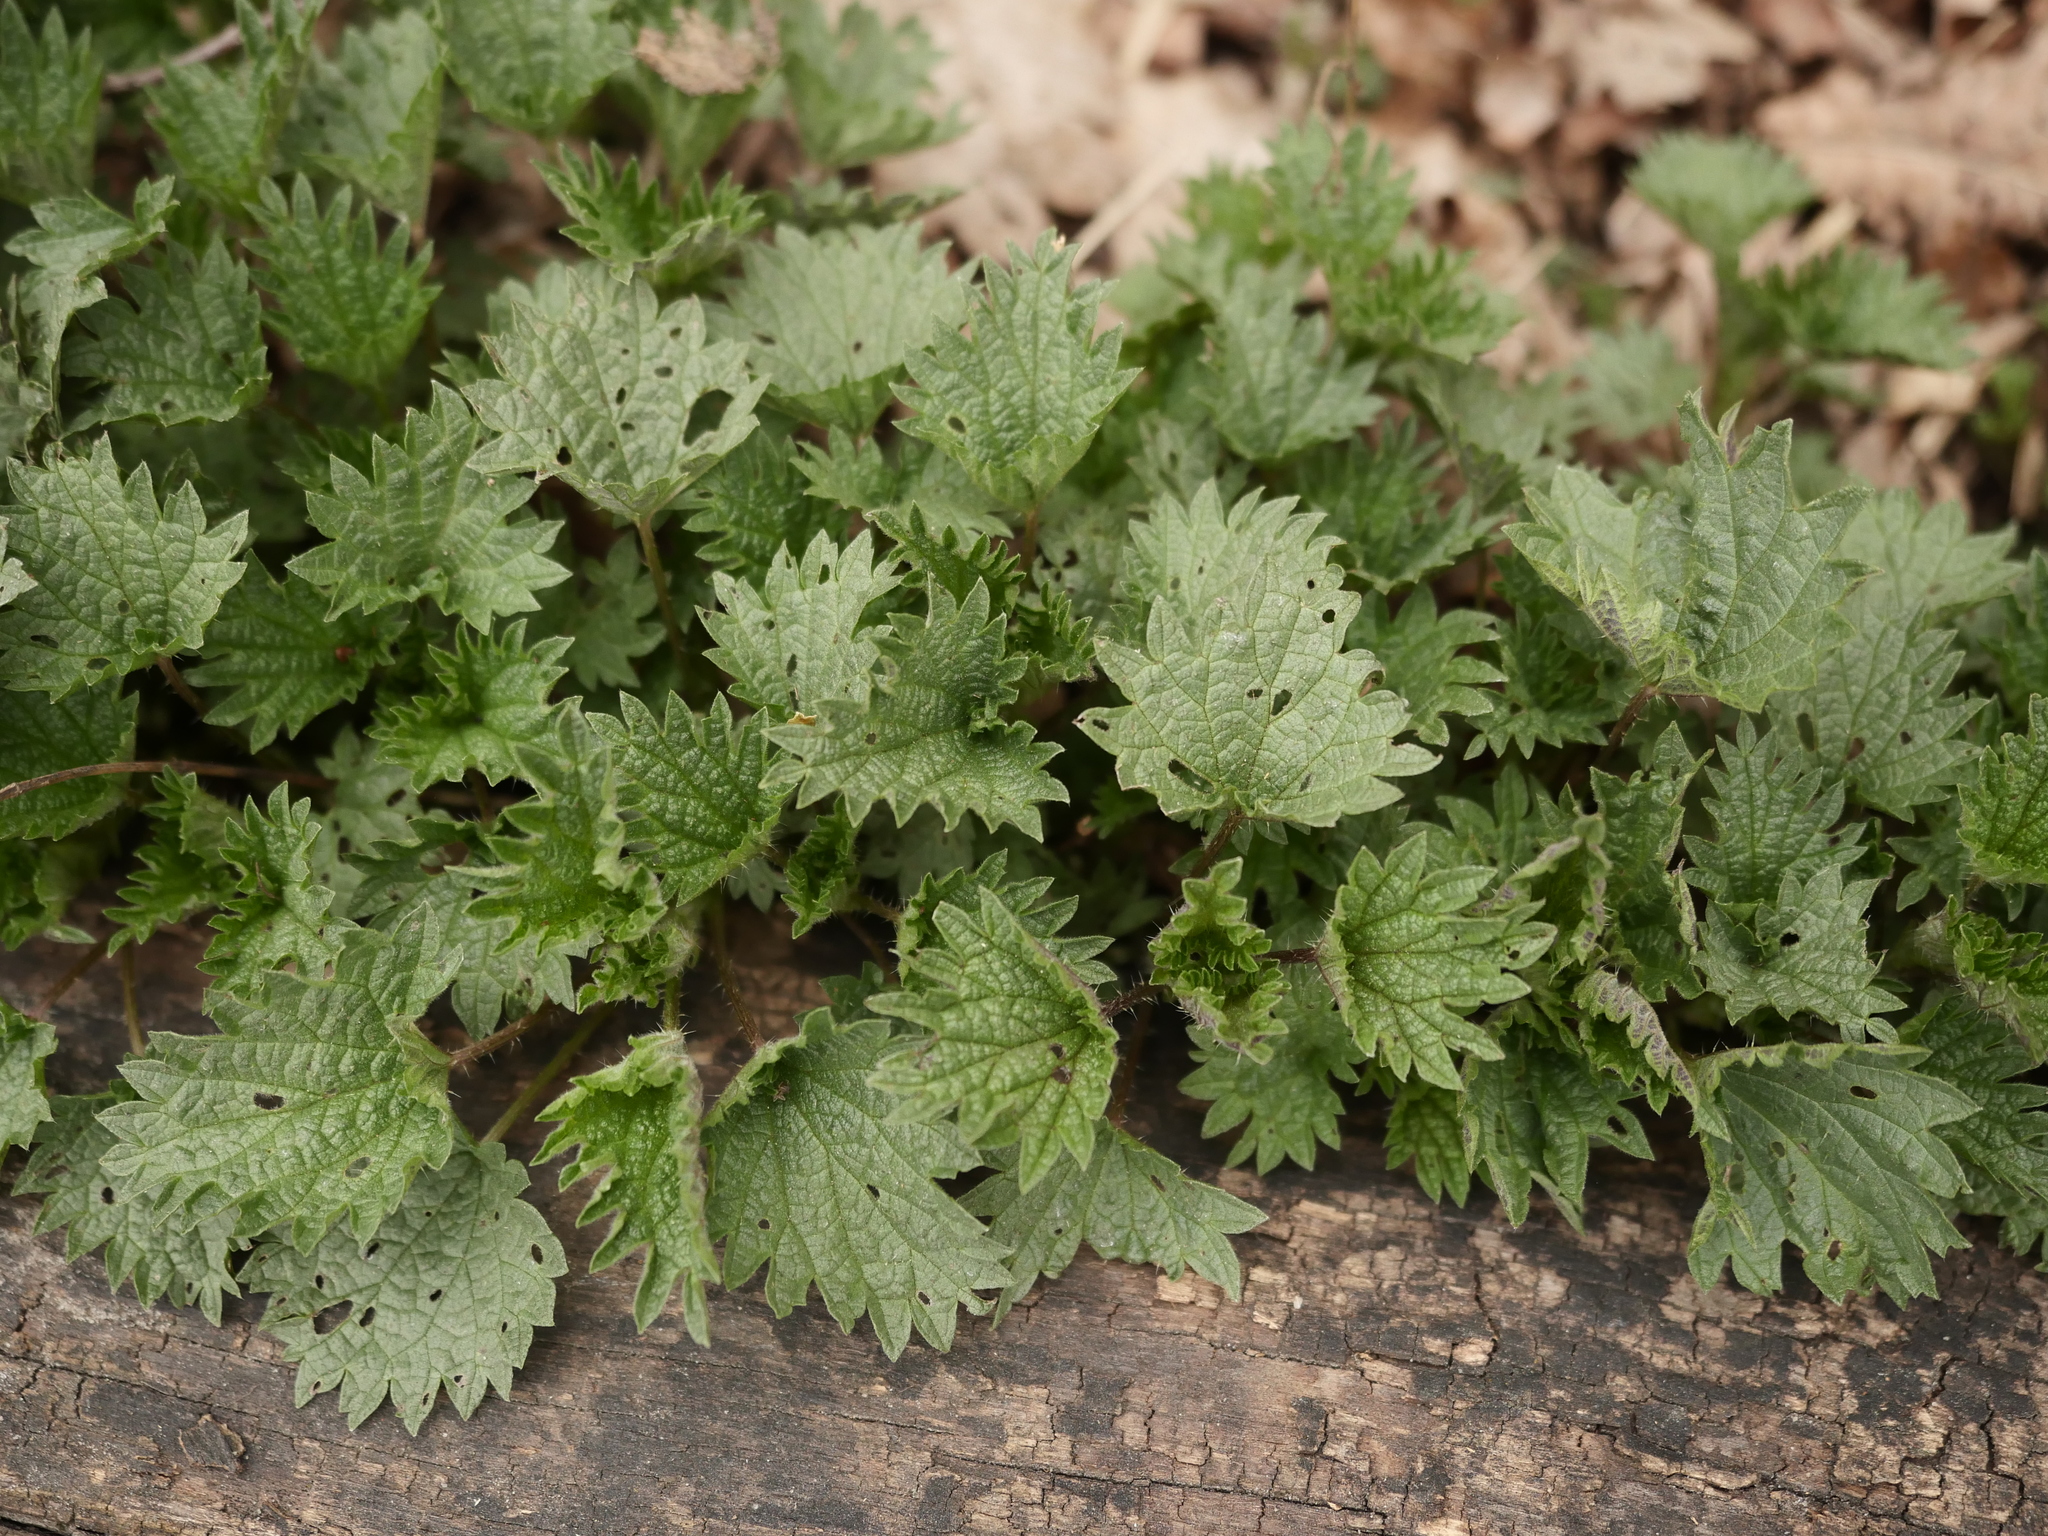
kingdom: Plantae
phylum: Tracheophyta
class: Magnoliopsida
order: Rosales
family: Urticaceae
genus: Urtica
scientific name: Urtica dioica
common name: Common nettle
